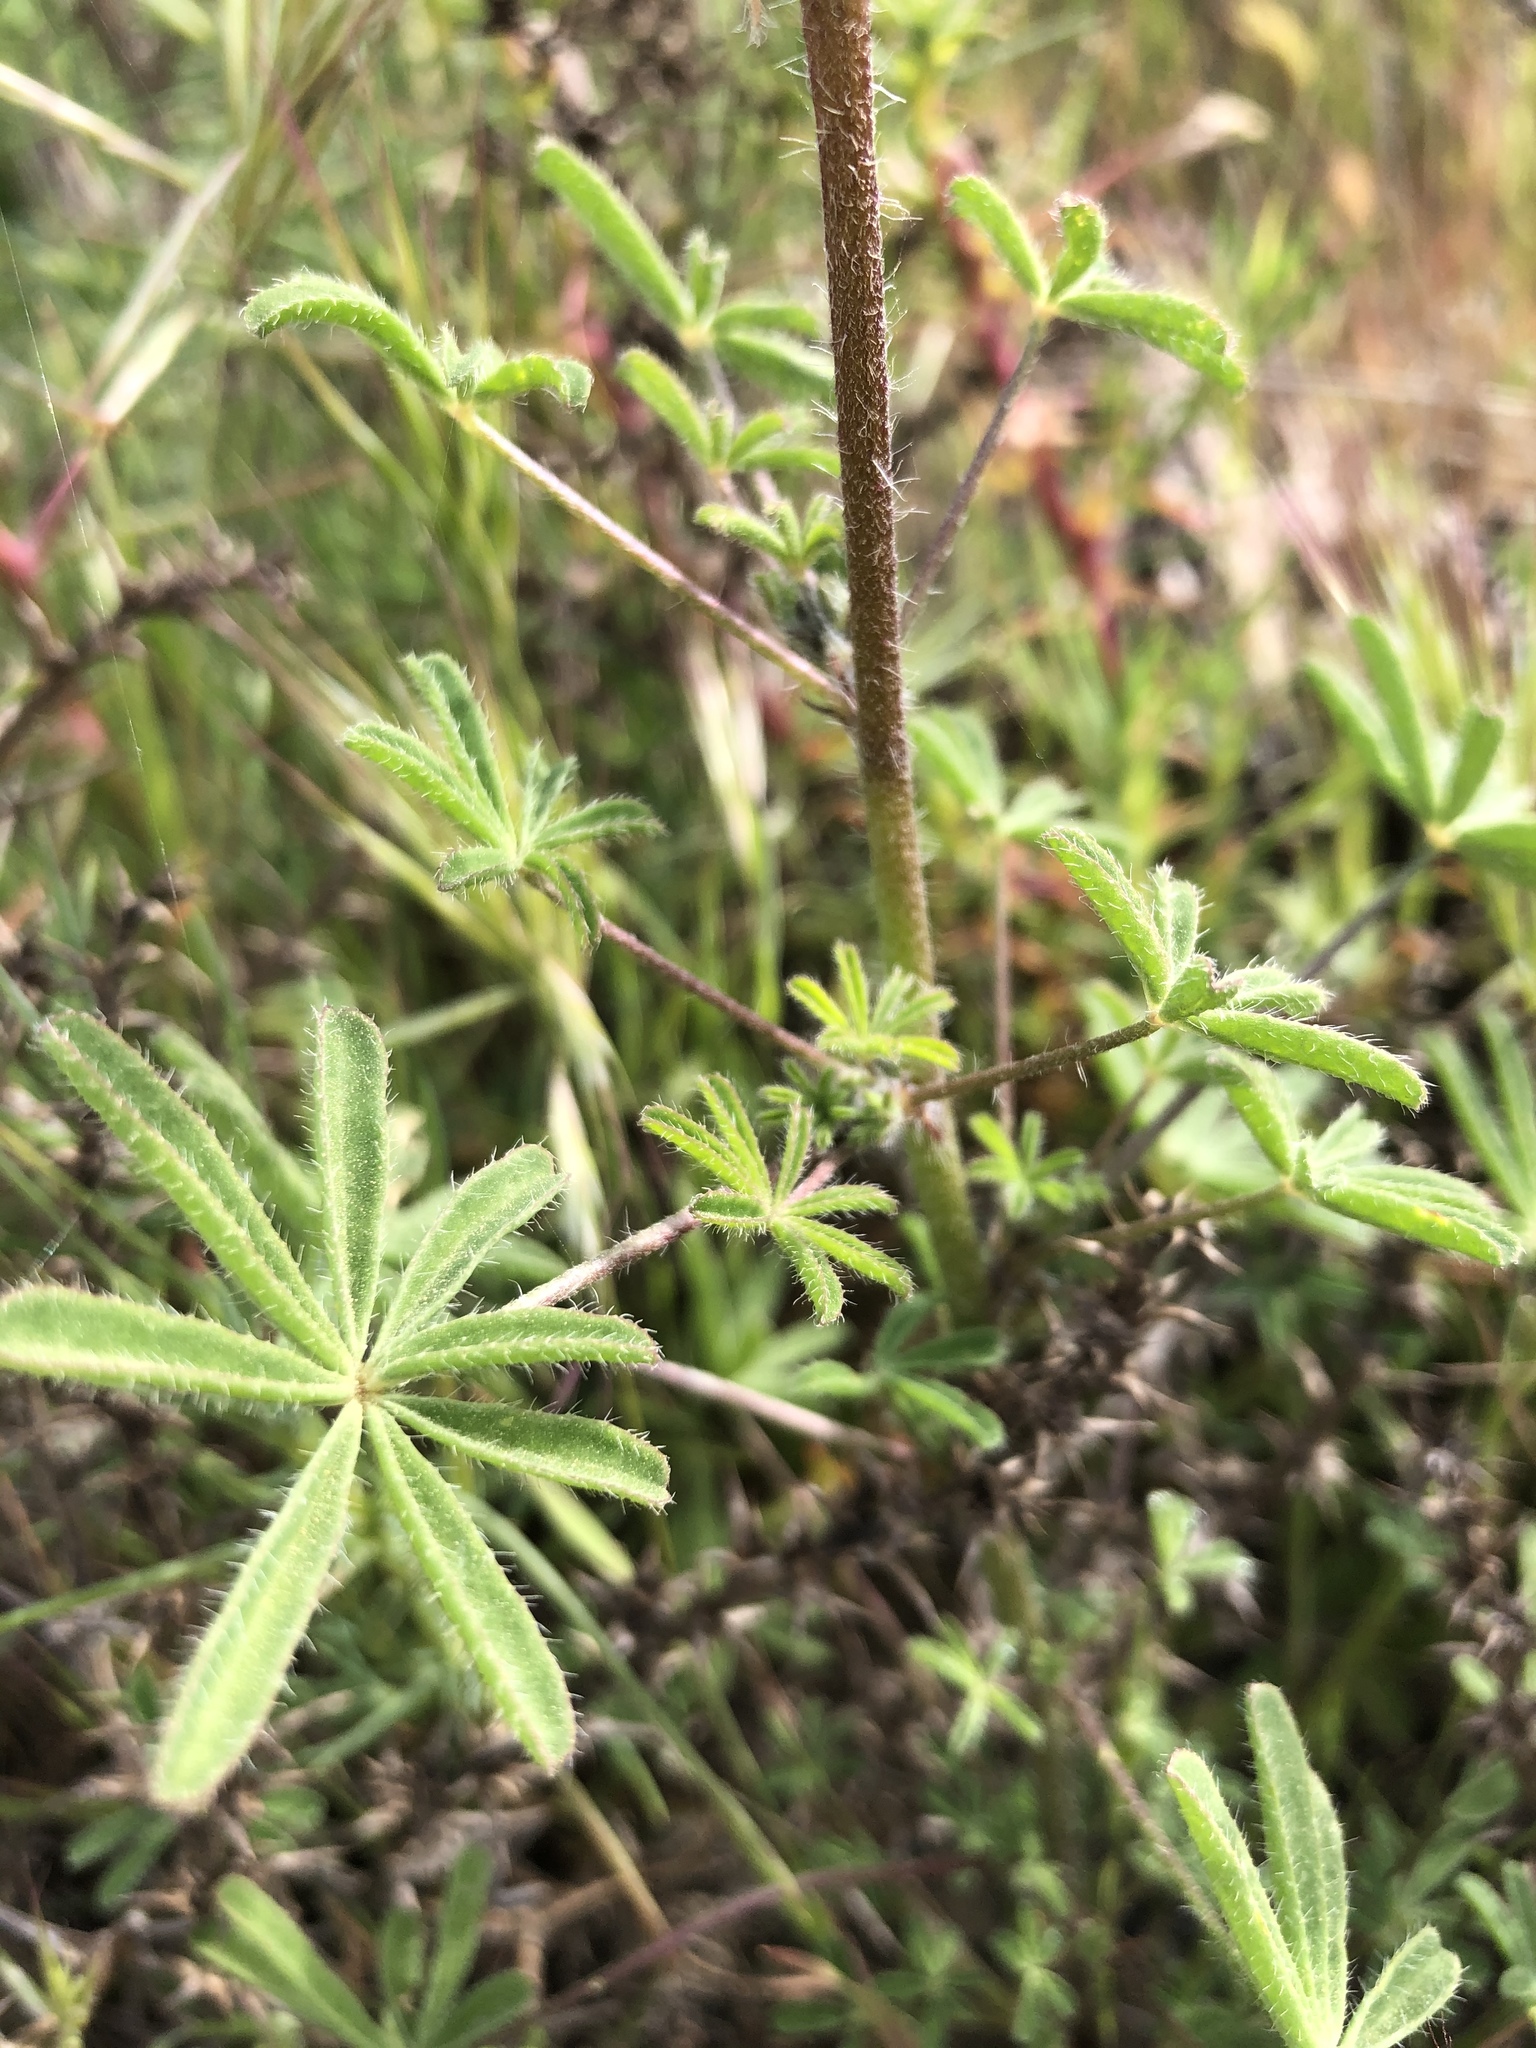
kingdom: Plantae
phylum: Tracheophyta
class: Magnoliopsida
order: Fabales
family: Fabaceae
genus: Lupinus
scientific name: Lupinus sparsiflorus
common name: Coulter's lupine
